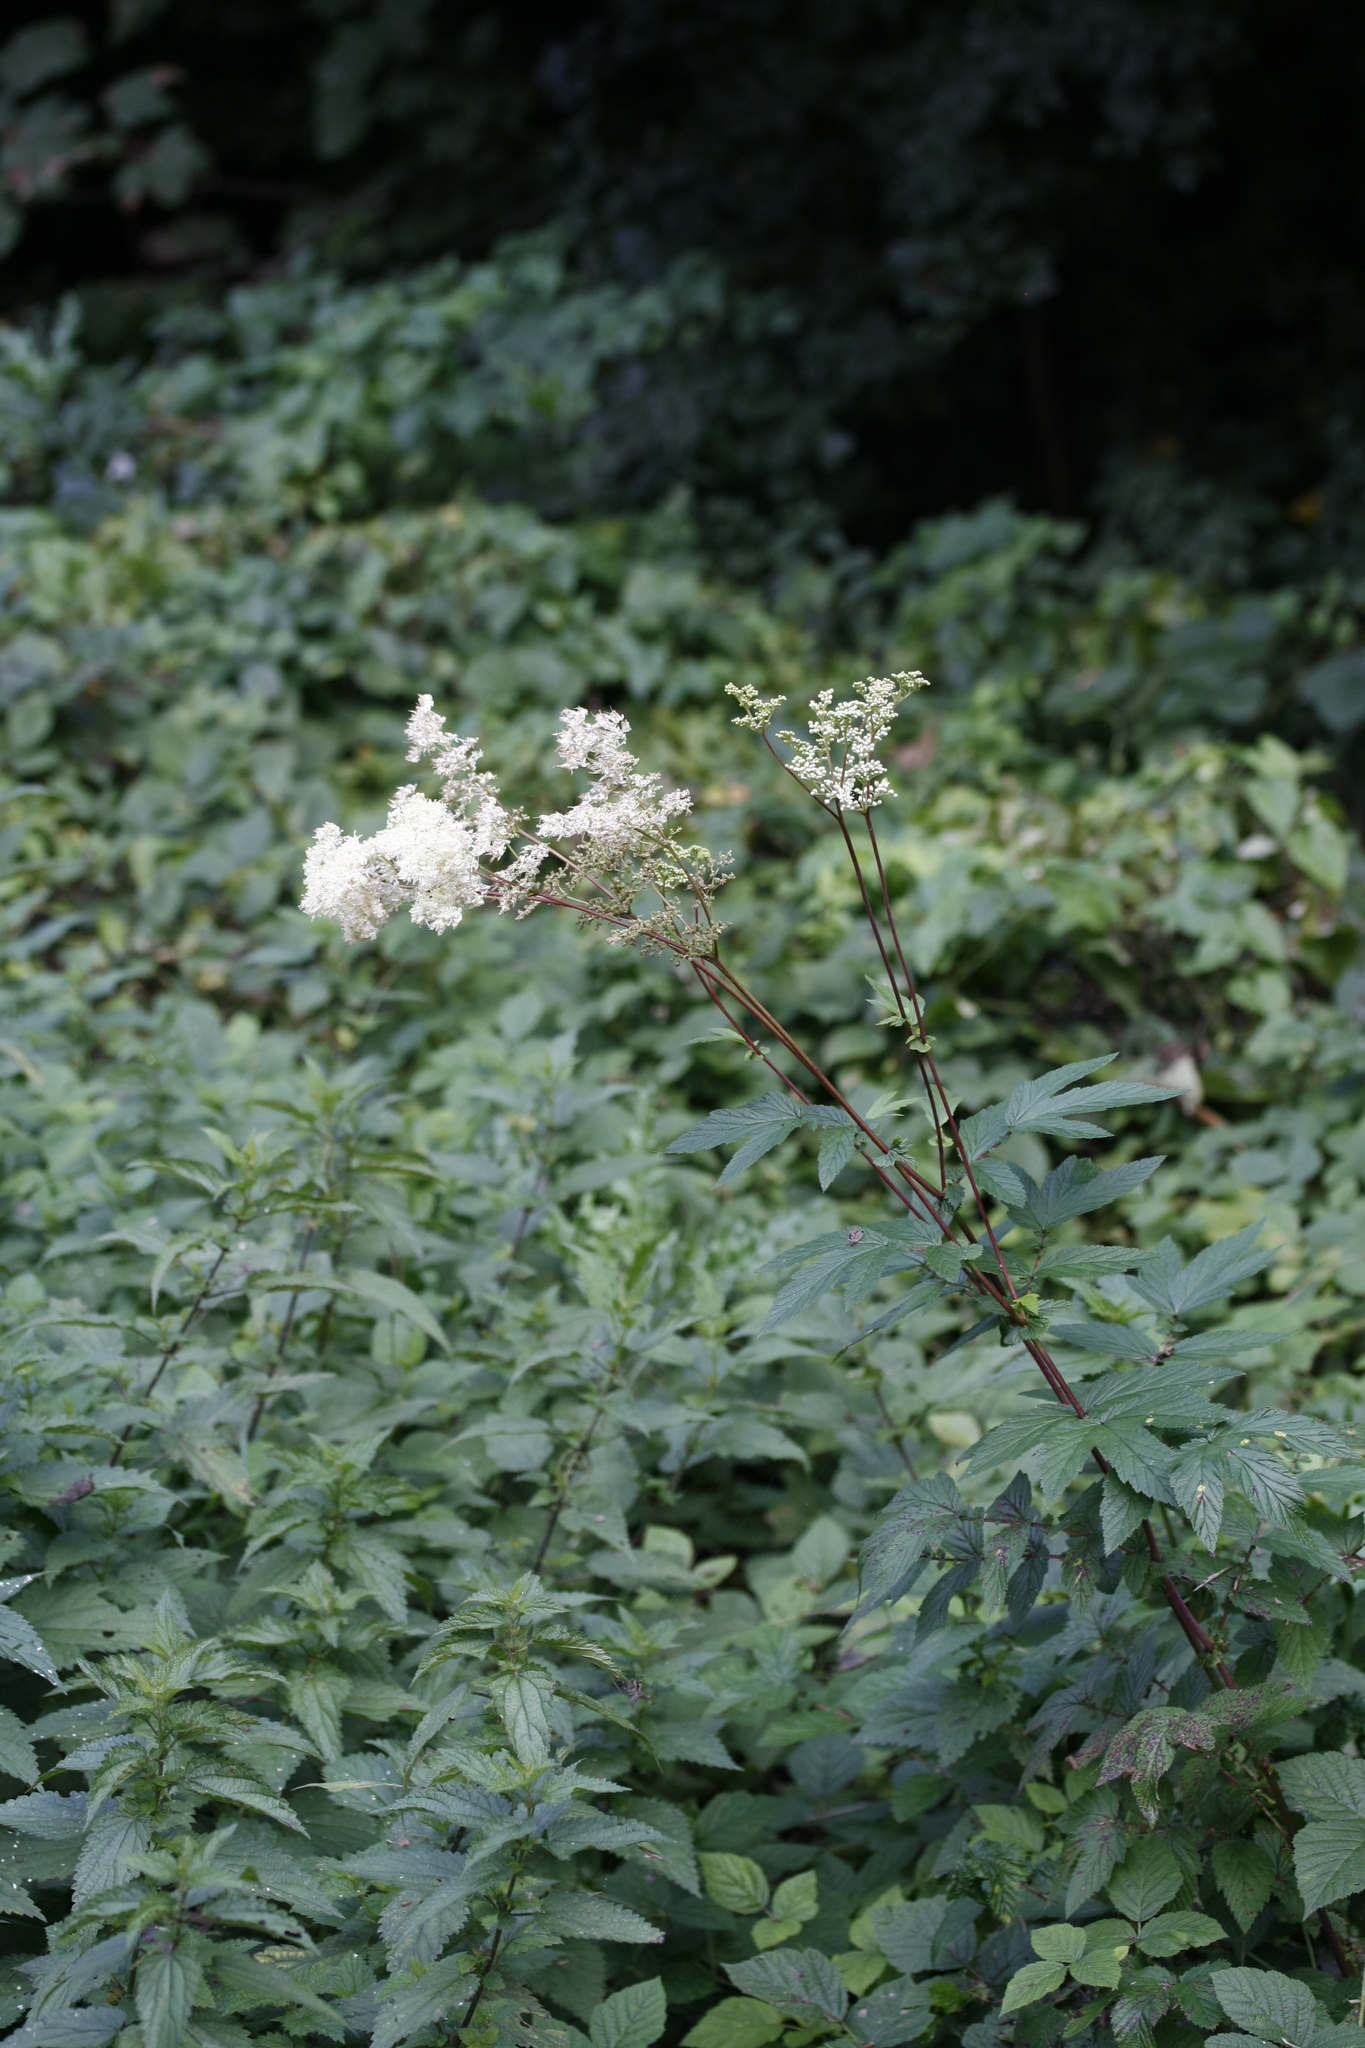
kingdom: Plantae
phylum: Tracheophyta
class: Magnoliopsida
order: Rosales
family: Rosaceae
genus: Filipendula
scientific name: Filipendula ulmaria
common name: Meadowsweet
